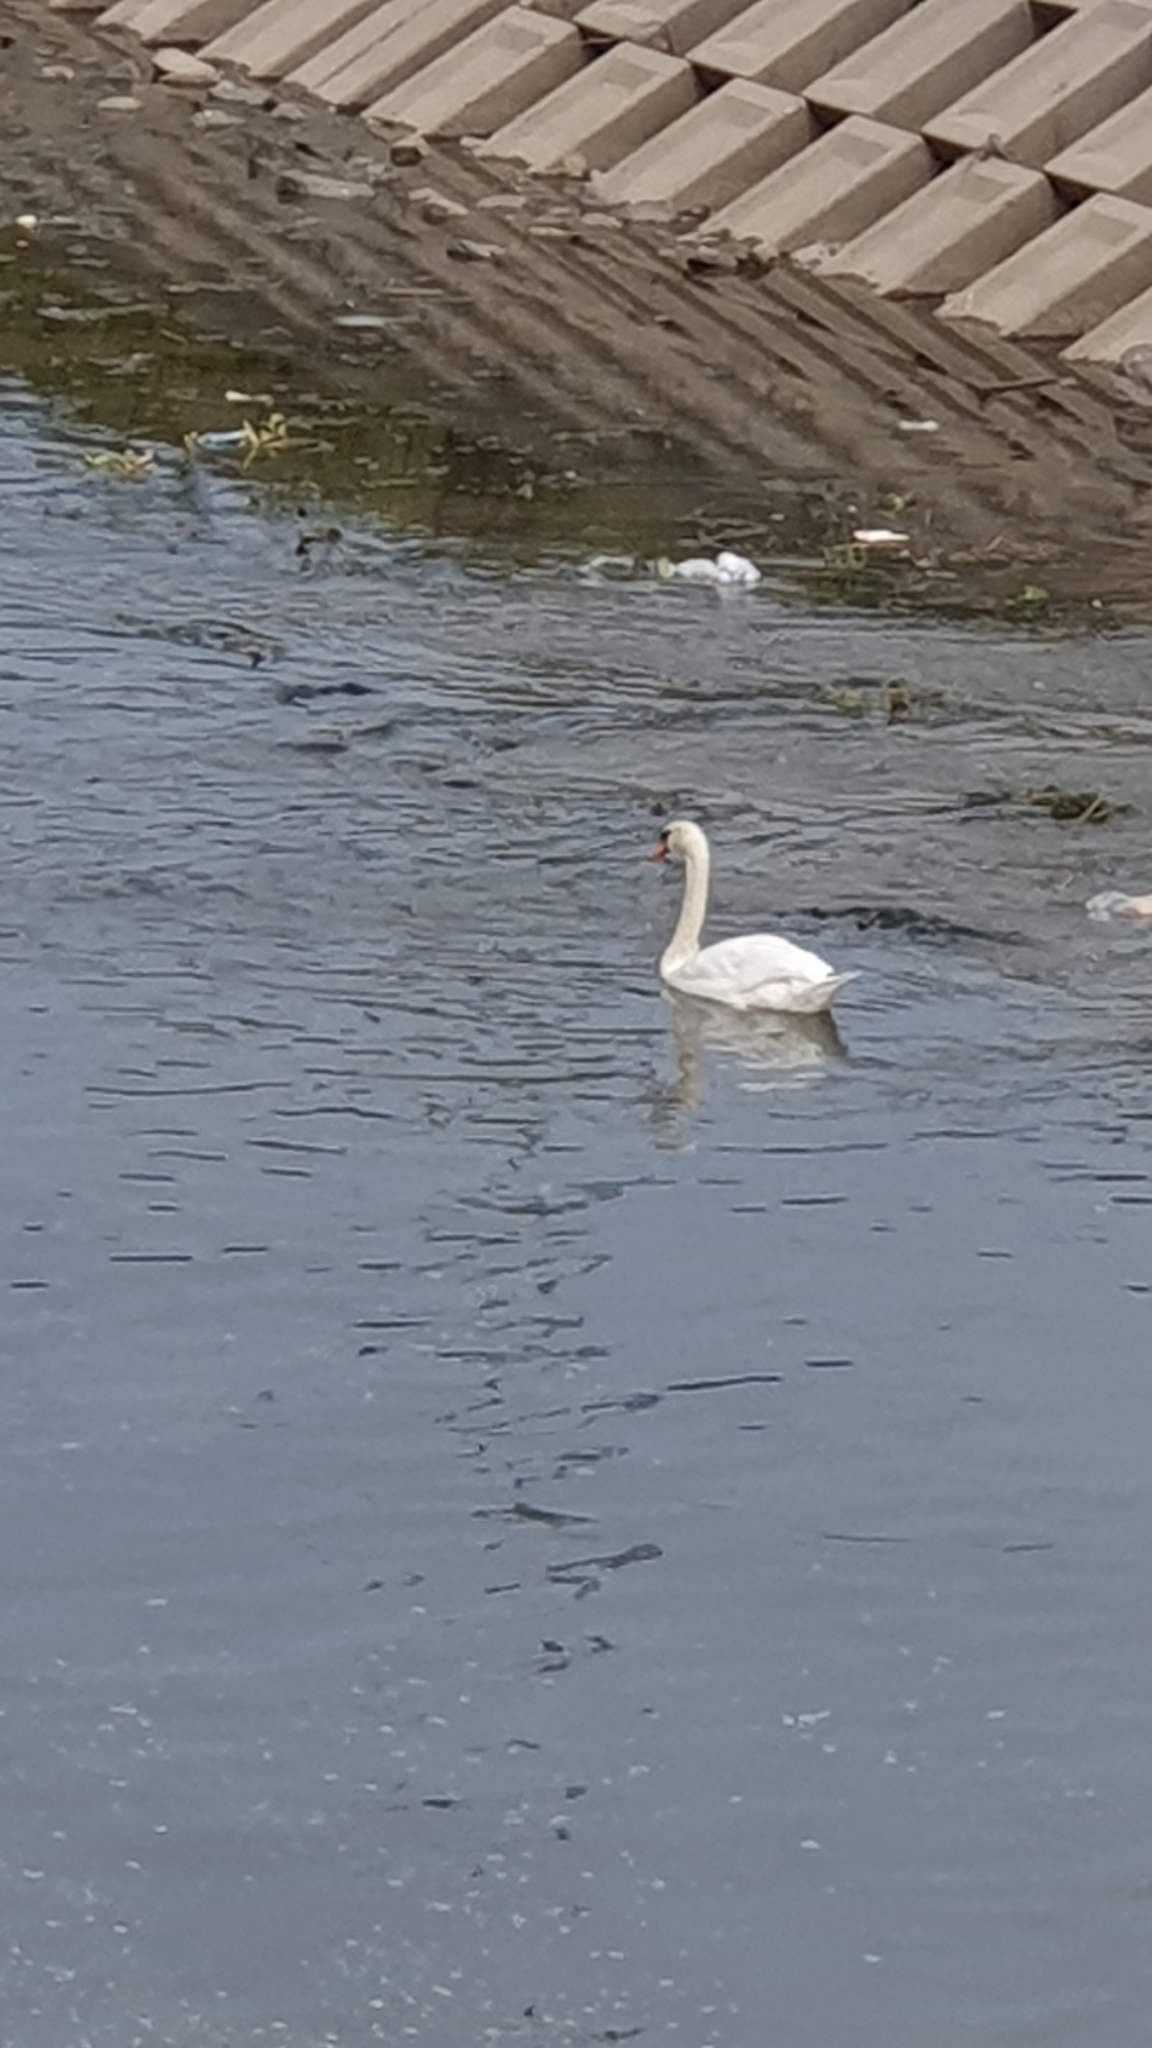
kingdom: Animalia
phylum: Chordata
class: Aves
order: Anseriformes
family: Anatidae
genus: Cygnus
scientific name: Cygnus olor
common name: Mute swan
